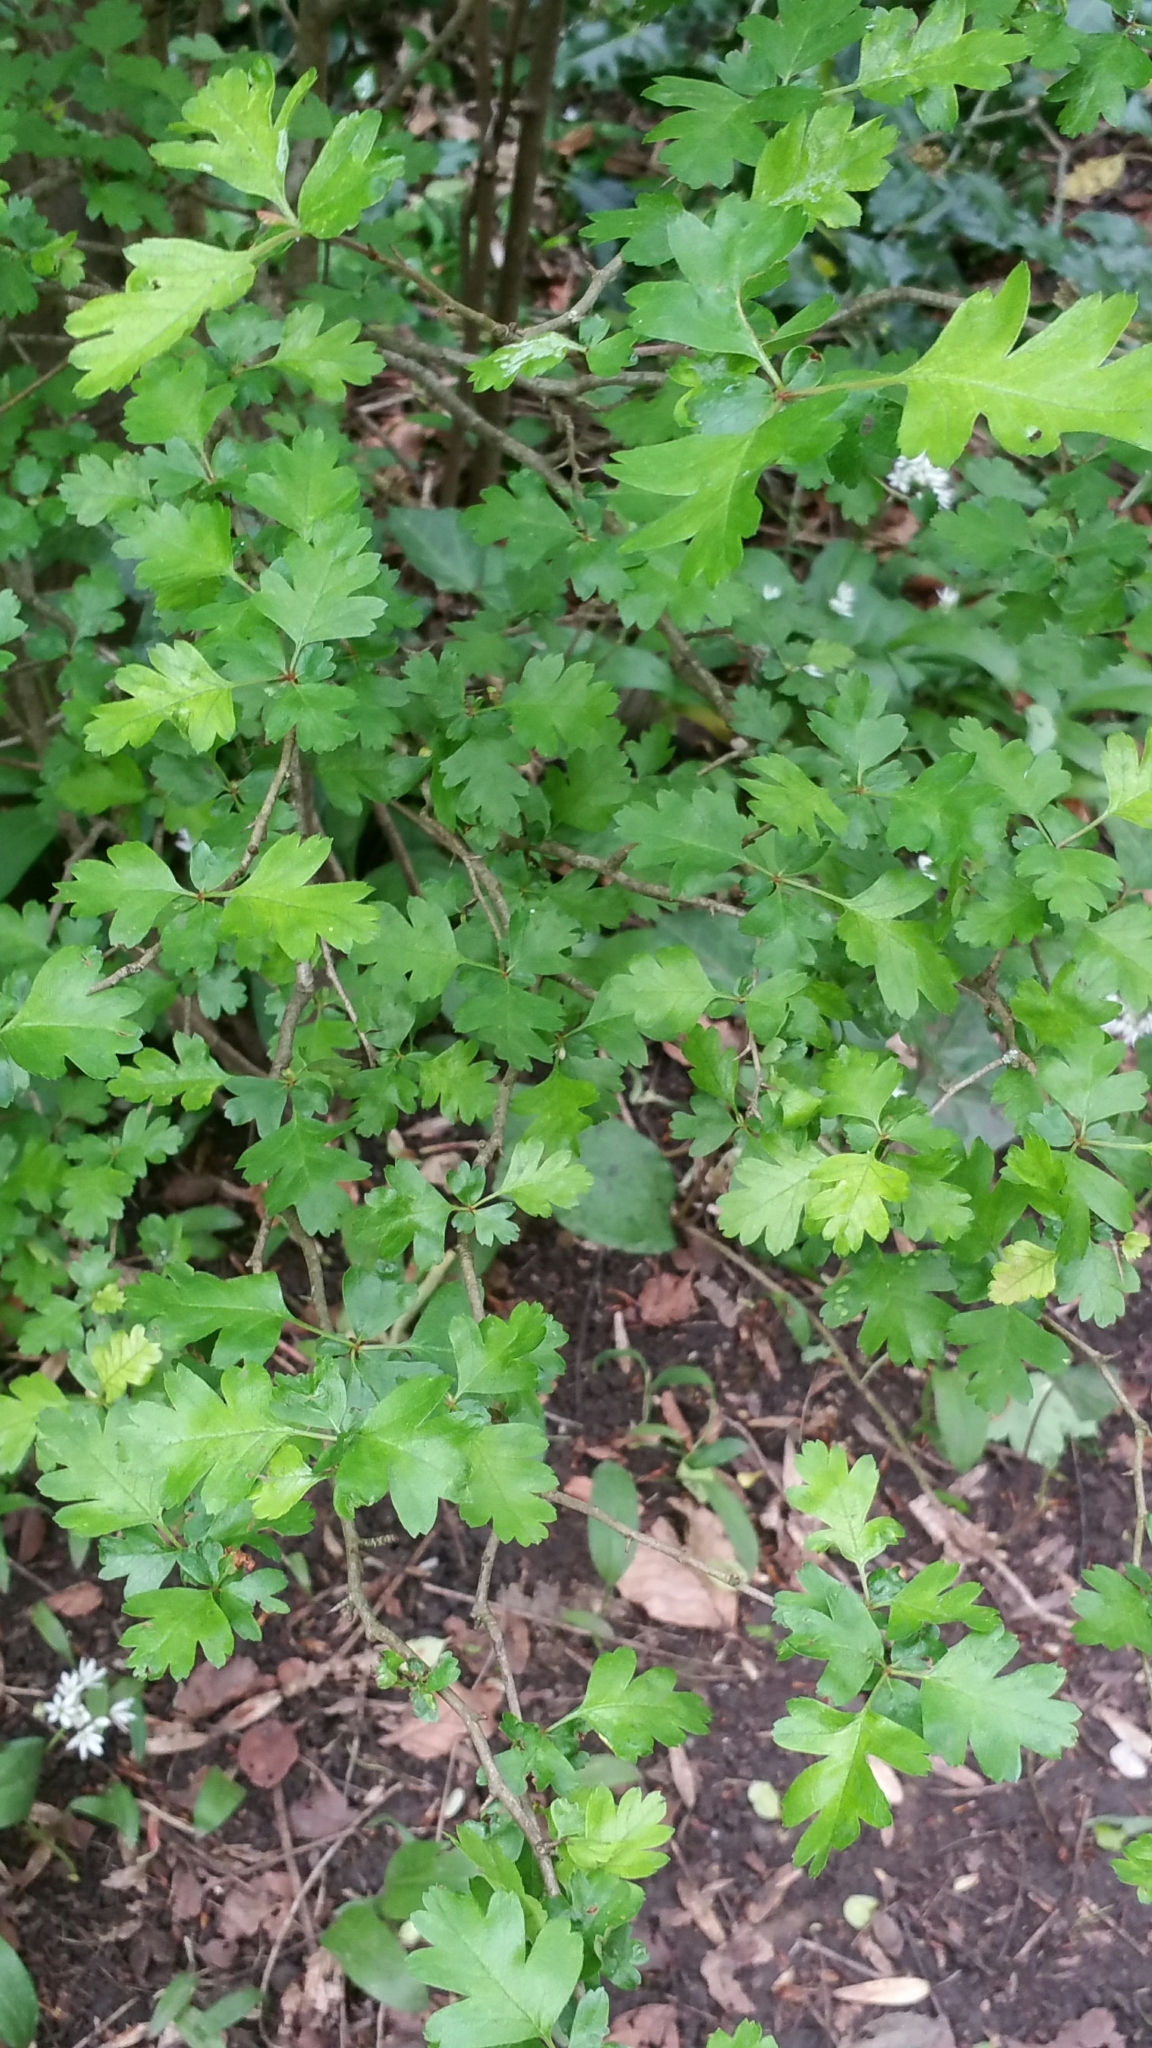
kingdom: Plantae
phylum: Tracheophyta
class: Magnoliopsida
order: Rosales
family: Rosaceae
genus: Crataegus
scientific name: Crataegus monogyna
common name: Hawthorn
